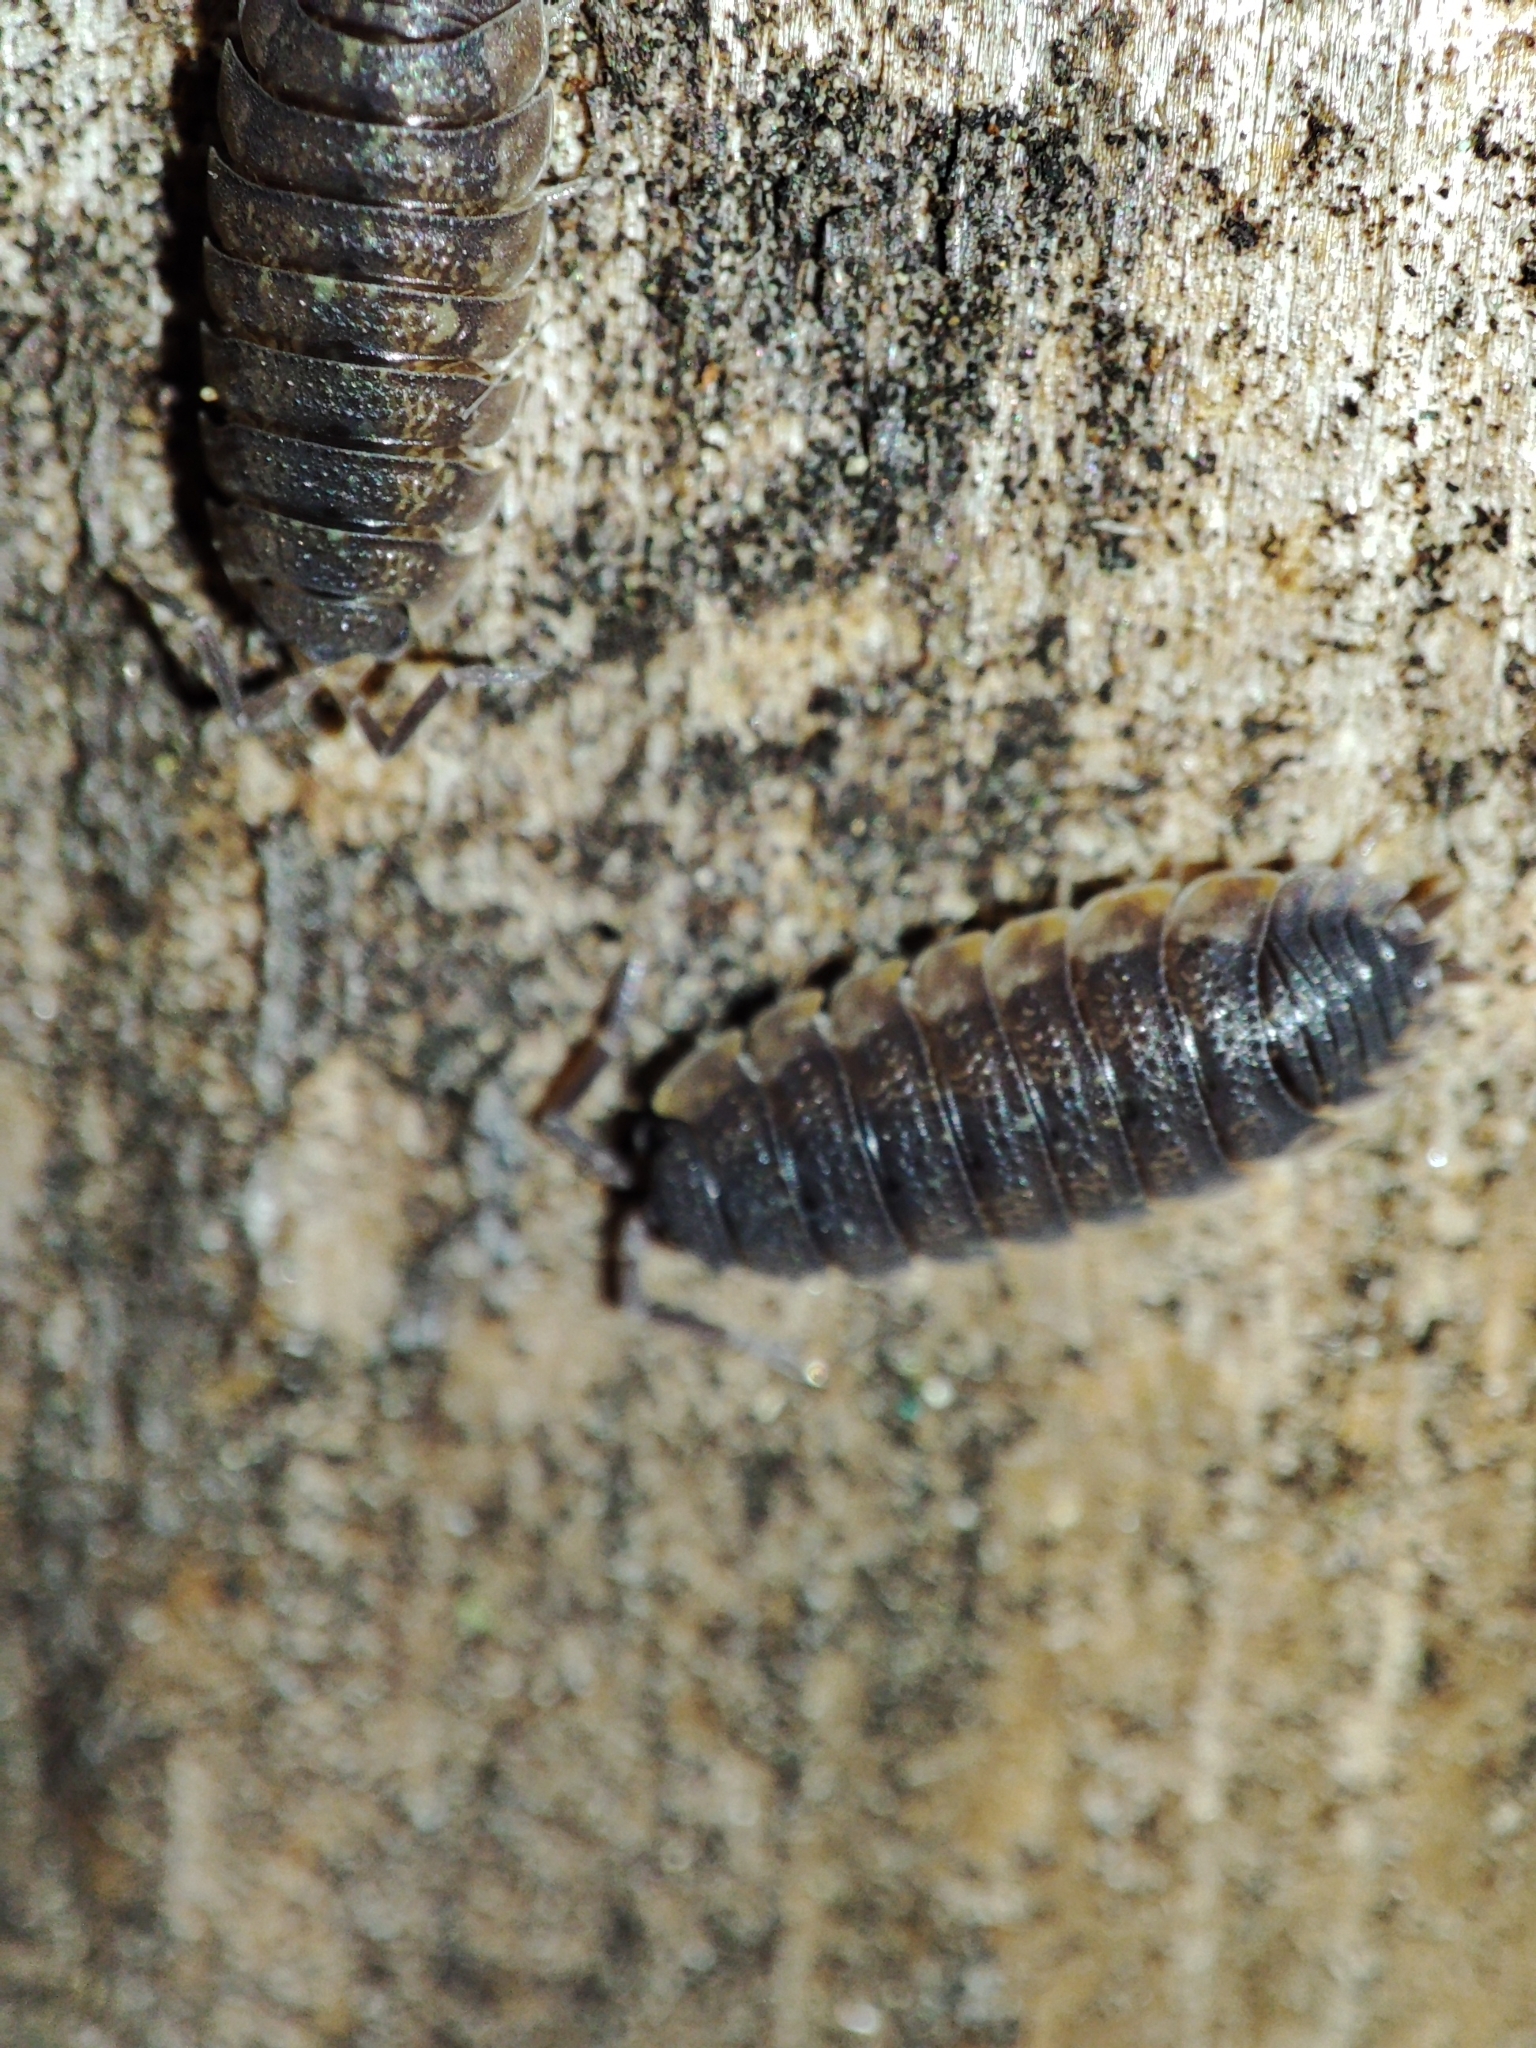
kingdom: Animalia
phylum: Arthropoda
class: Malacostraca
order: Isopoda
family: Porcellionidae
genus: Porcellio
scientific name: Porcellio scaber
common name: Common rough woodlouse
